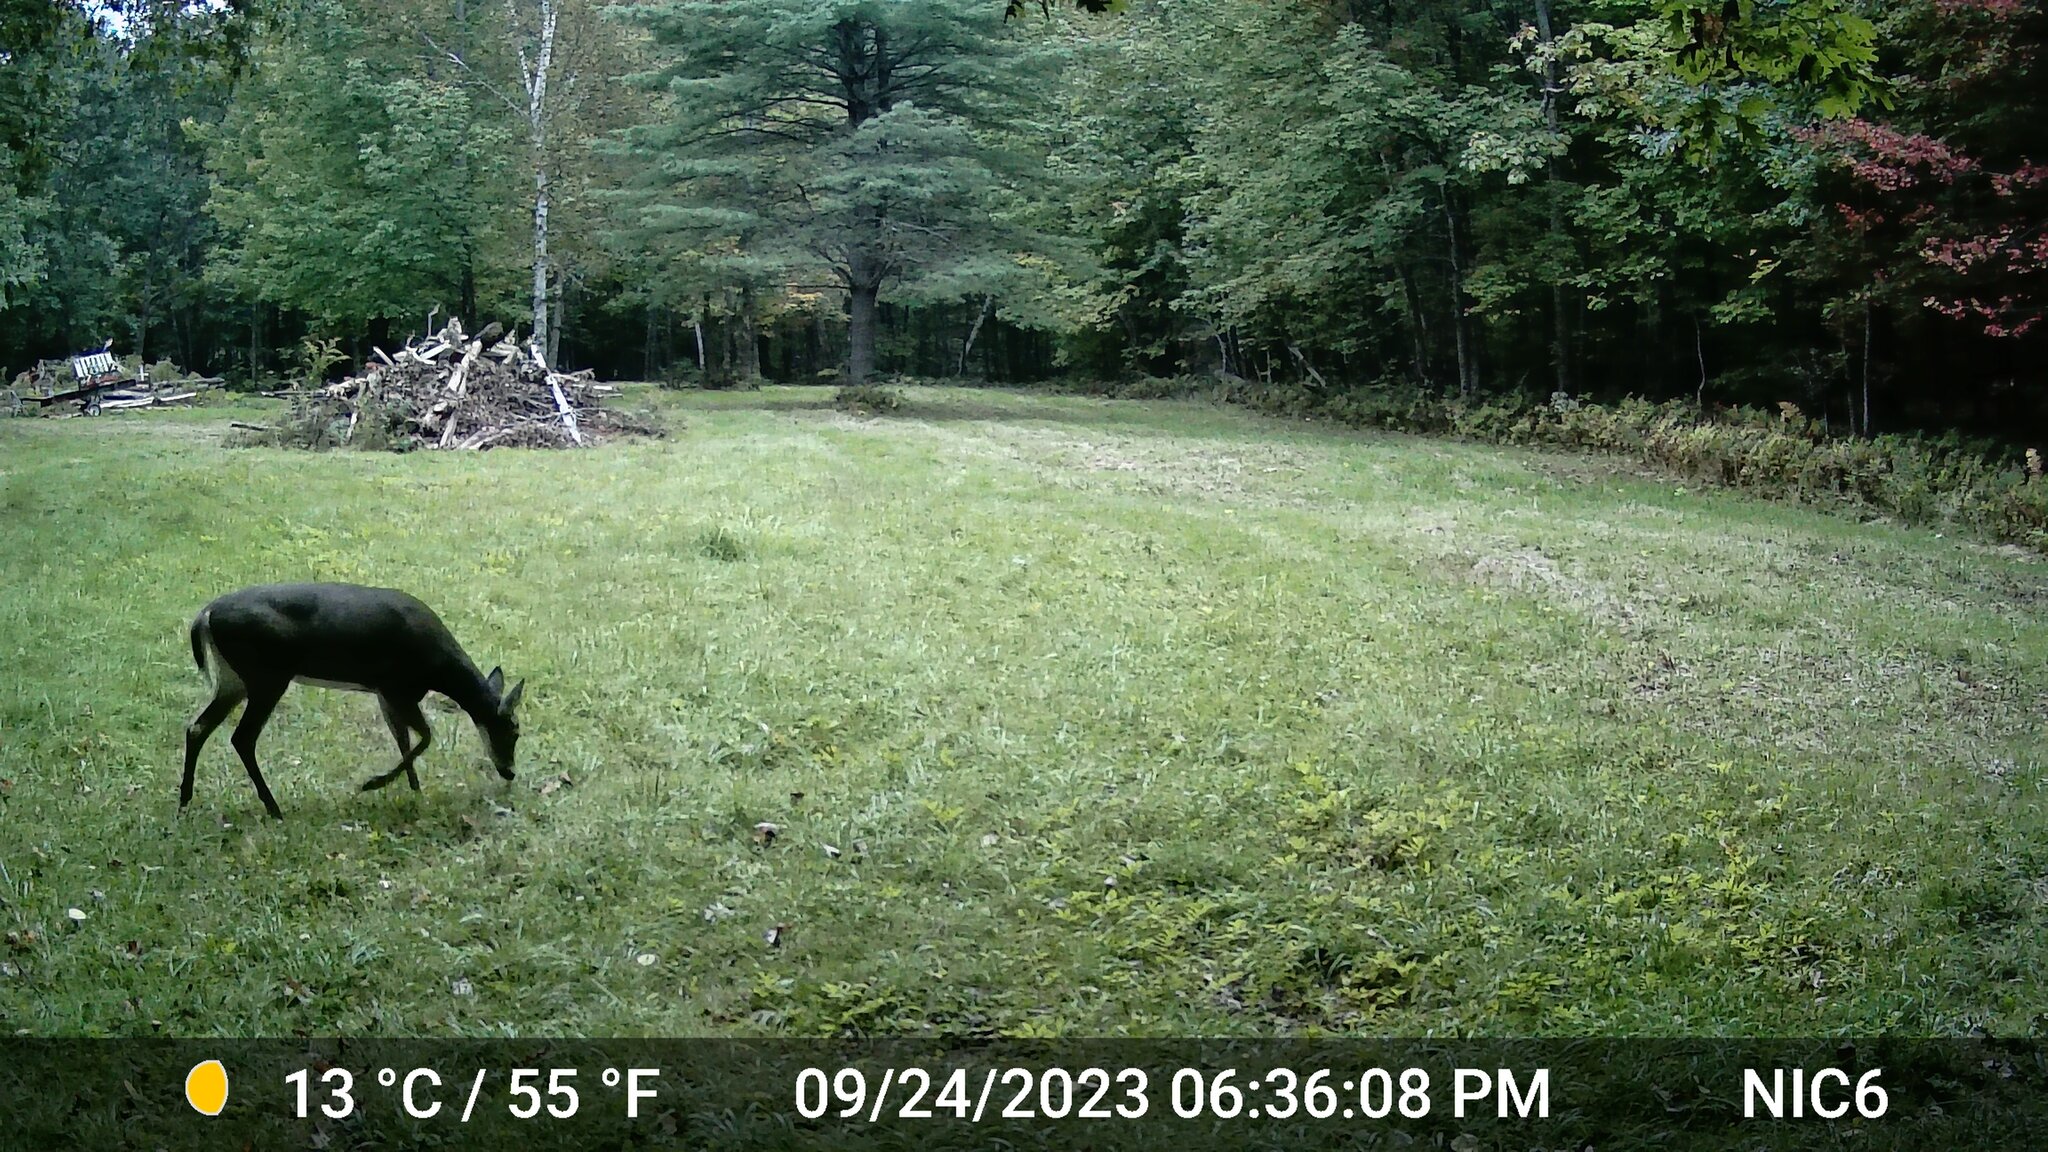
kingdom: Animalia
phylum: Chordata
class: Mammalia
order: Artiodactyla
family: Cervidae
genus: Odocoileus
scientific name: Odocoileus virginianus
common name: White-tailed deer
